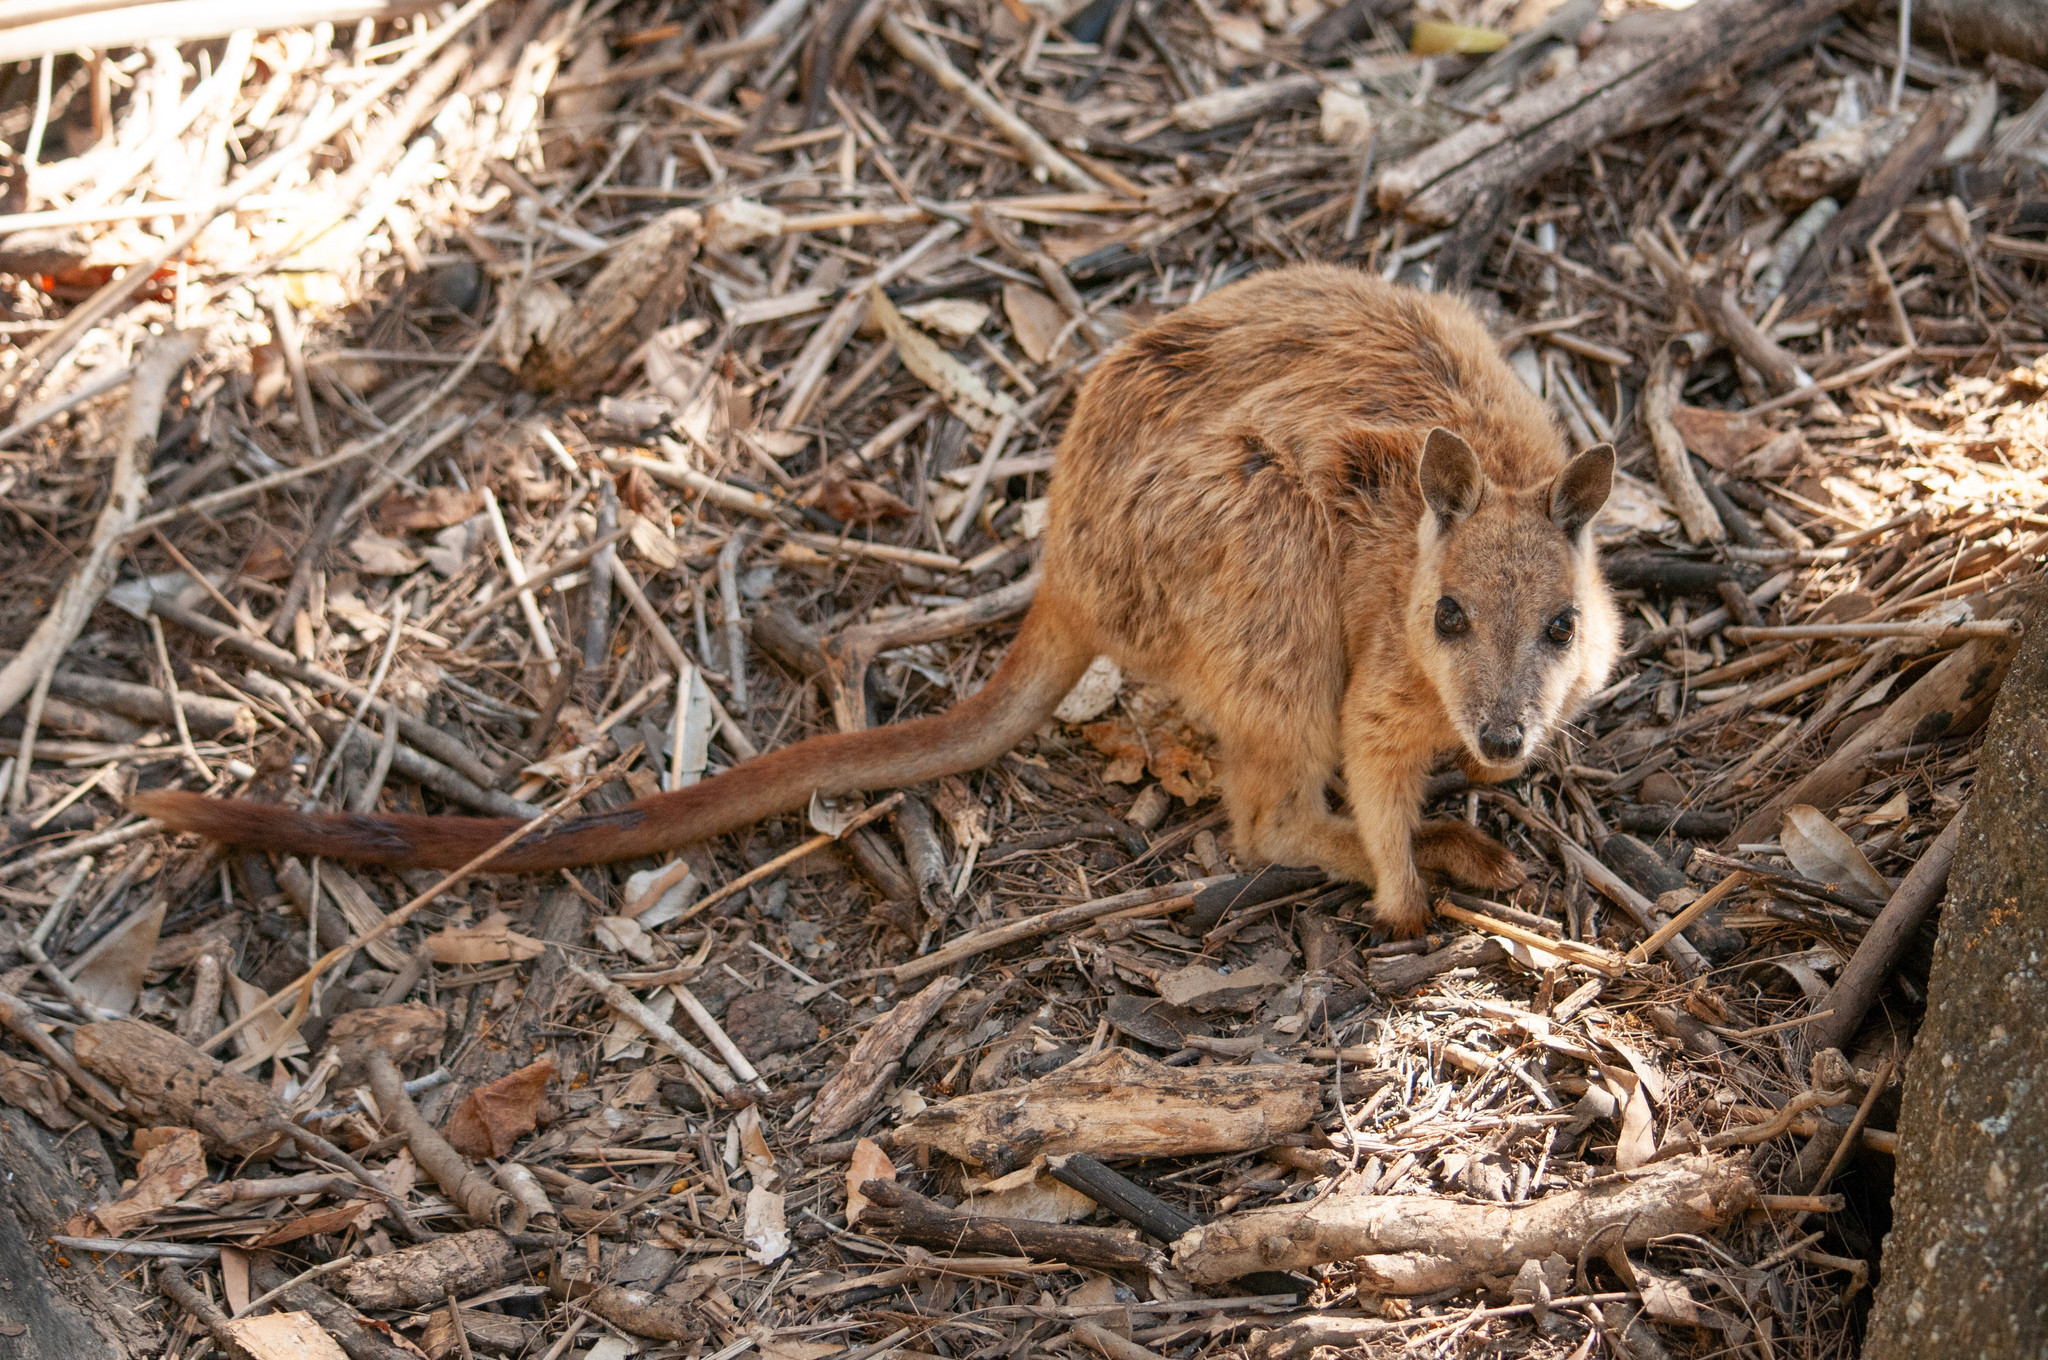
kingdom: Animalia
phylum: Chordata
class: Mammalia
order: Diprotodontia
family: Macropodidae
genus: Petrogale
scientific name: Petrogale mareeba
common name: Mareeba rock-wallaby
